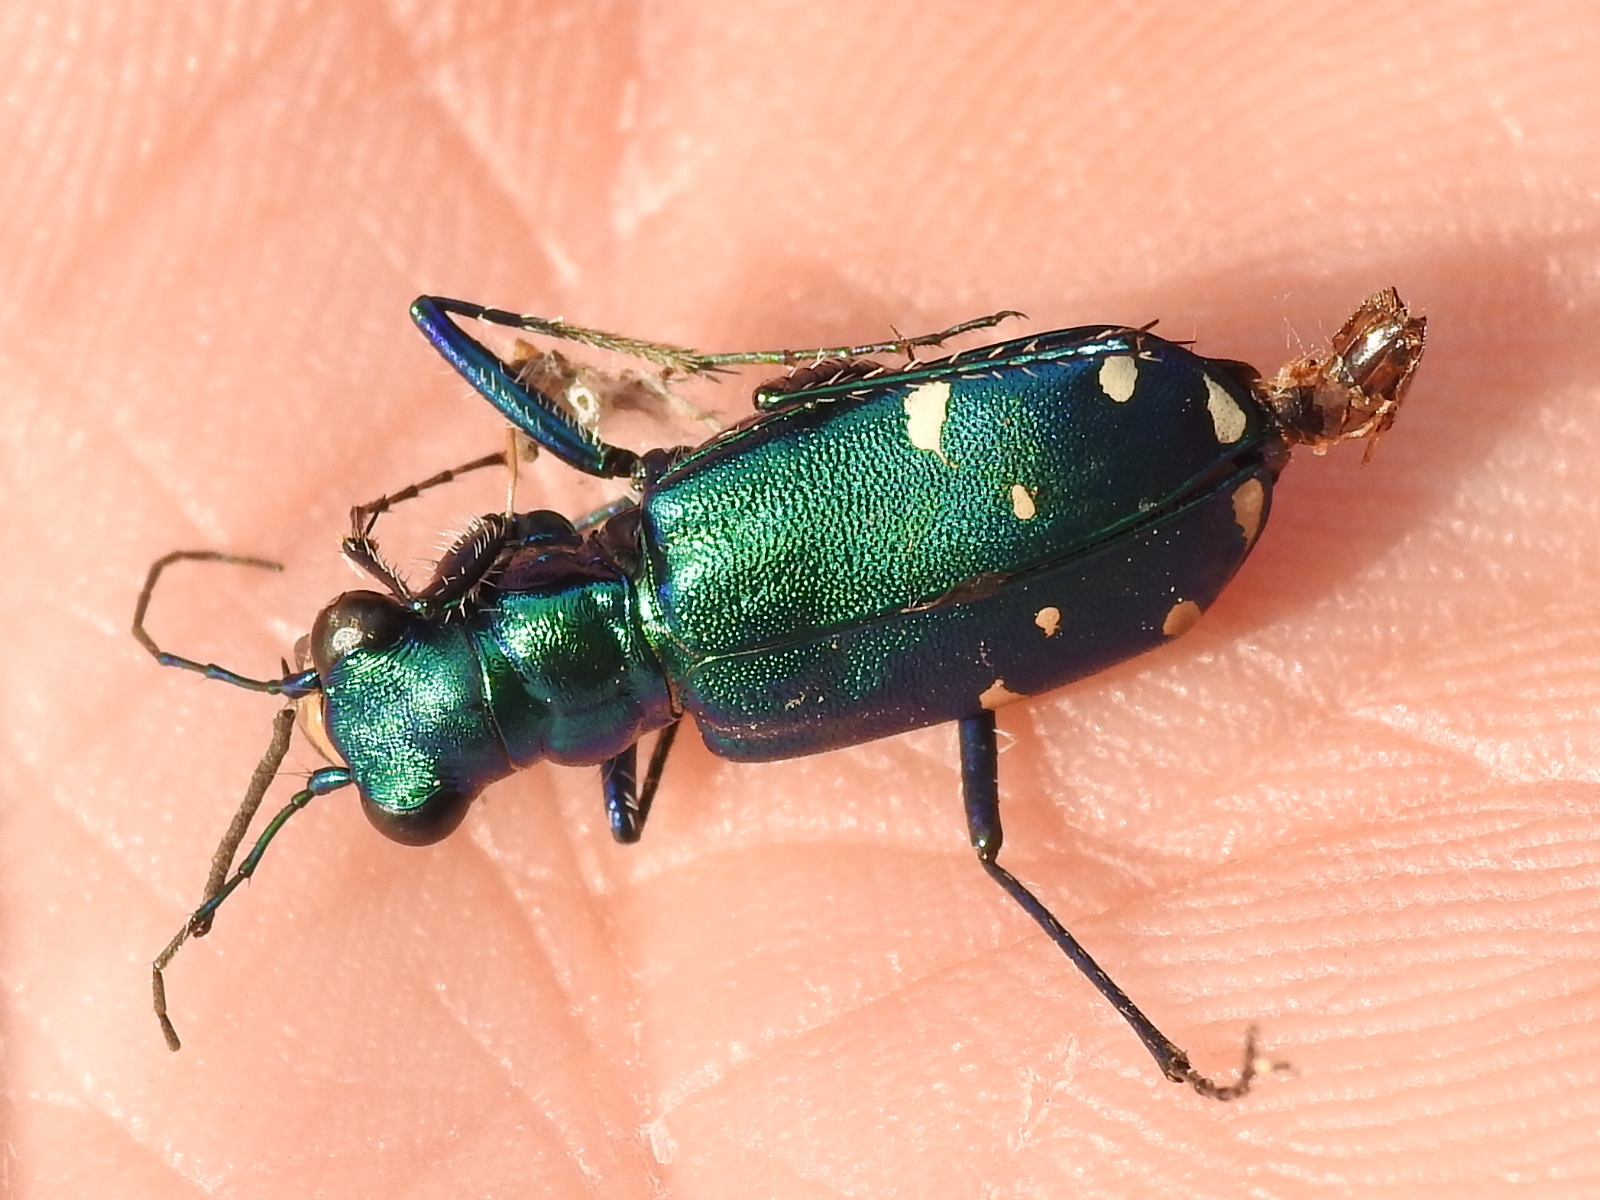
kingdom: Animalia
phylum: Arthropoda
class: Insecta
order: Coleoptera
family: Carabidae
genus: Cicindela
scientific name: Cicindela sexguttata
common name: Six-spotted tiger beetle
